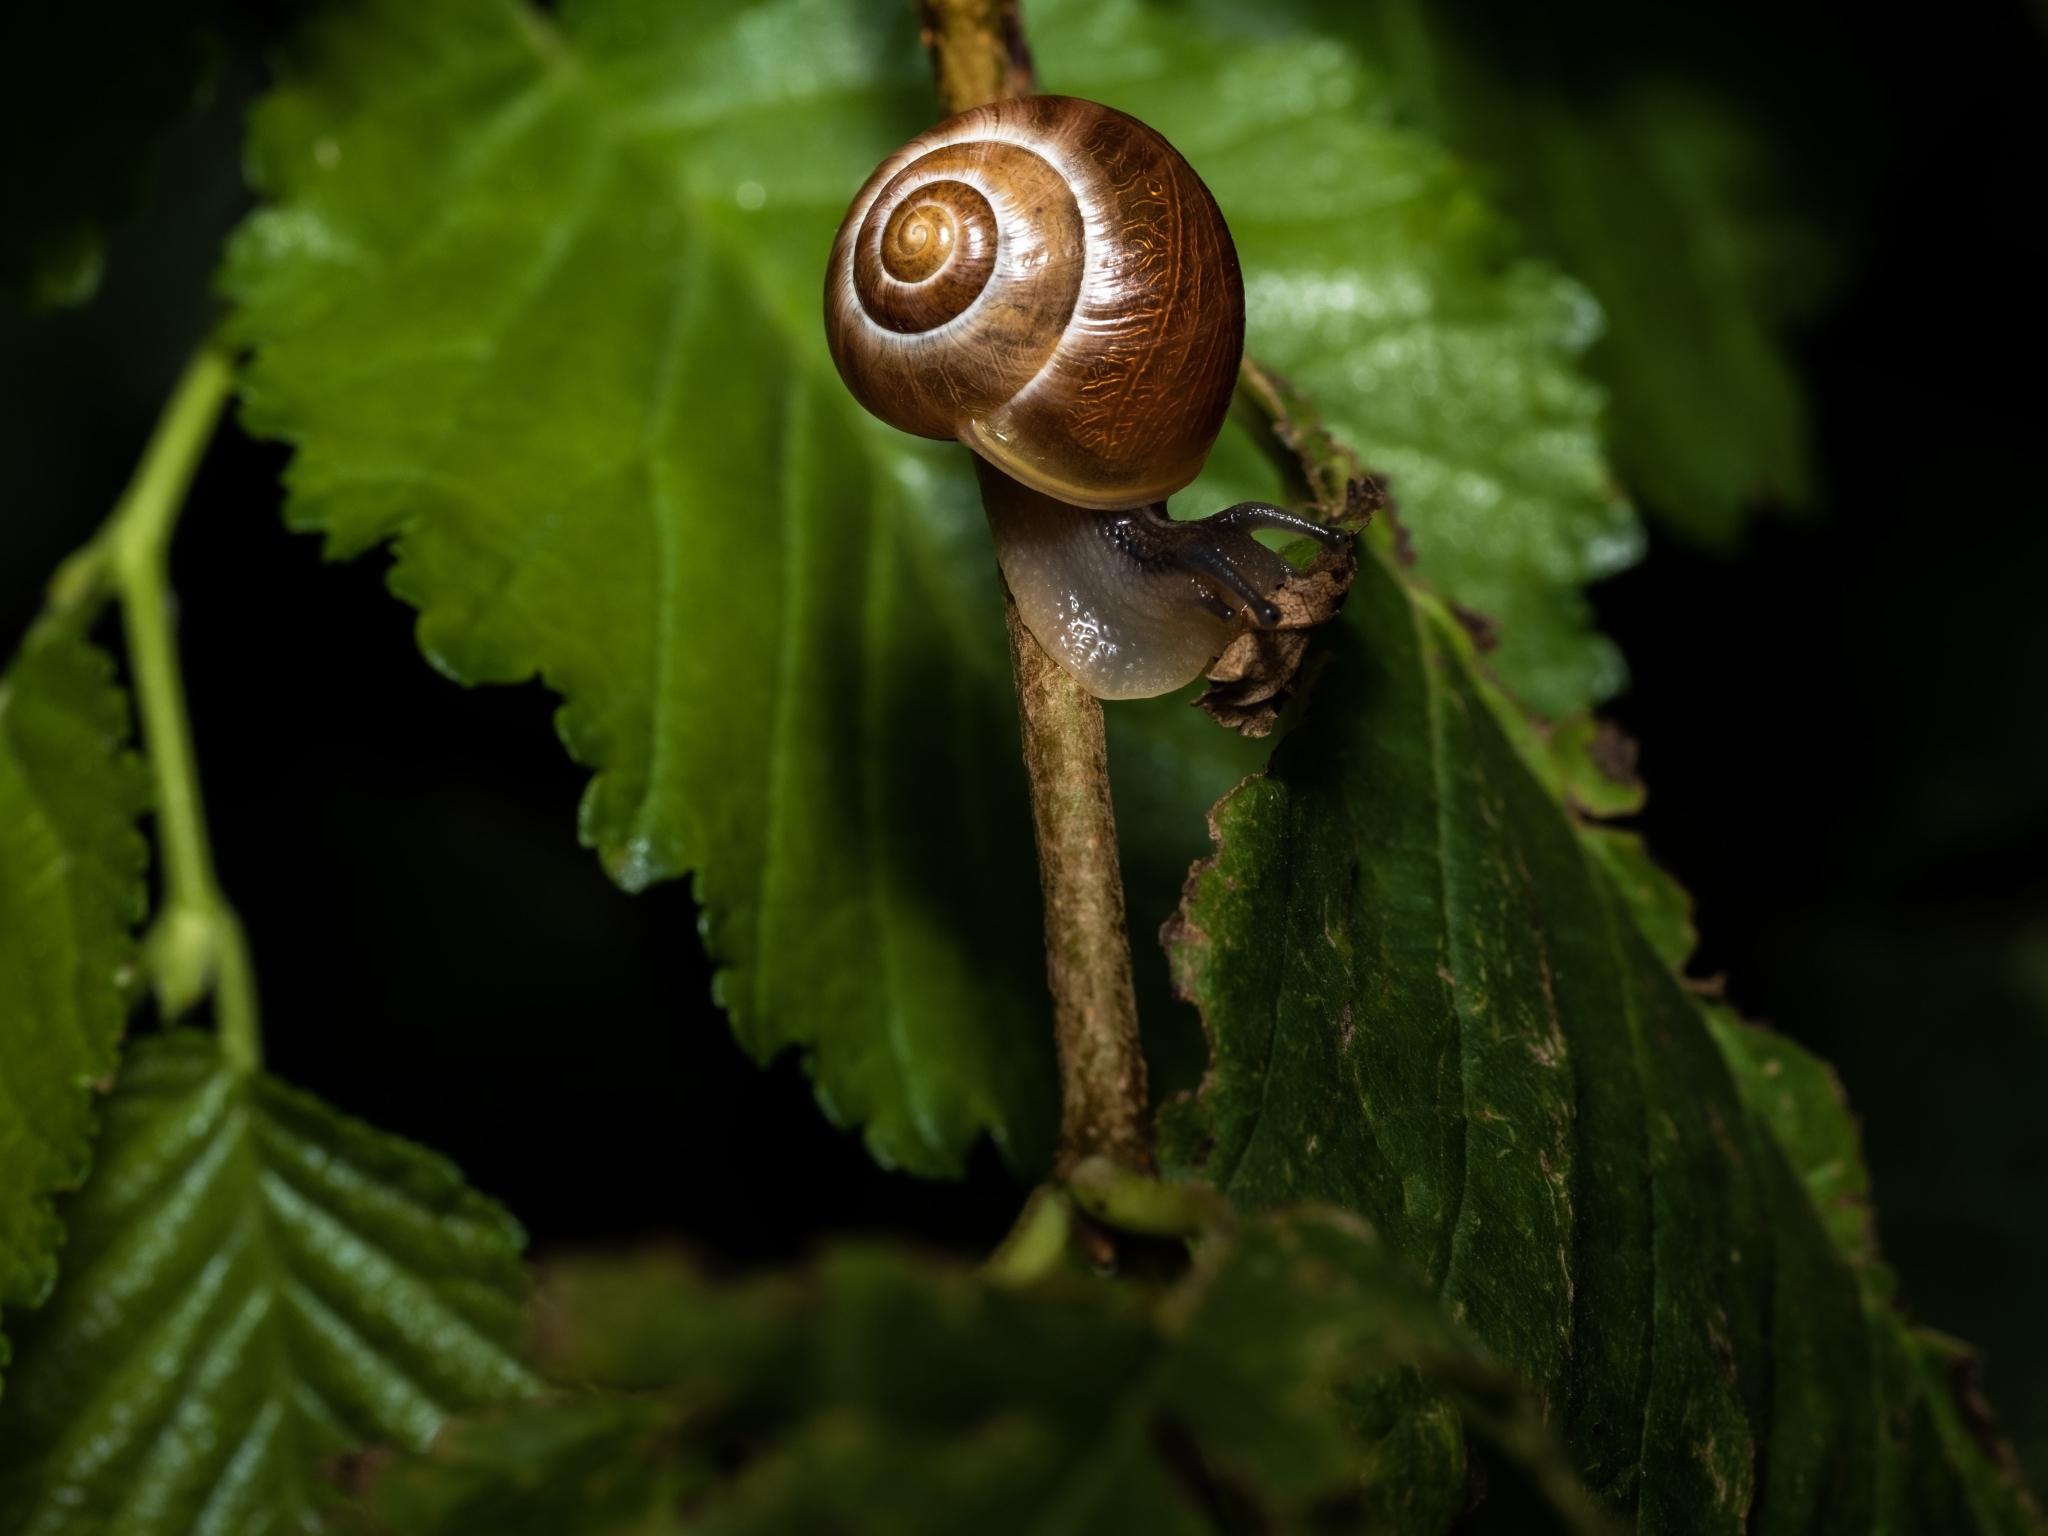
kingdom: Animalia
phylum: Mollusca
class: Gastropoda
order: Stylommatophora
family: Helicidae
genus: Cepaea
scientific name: Cepaea
